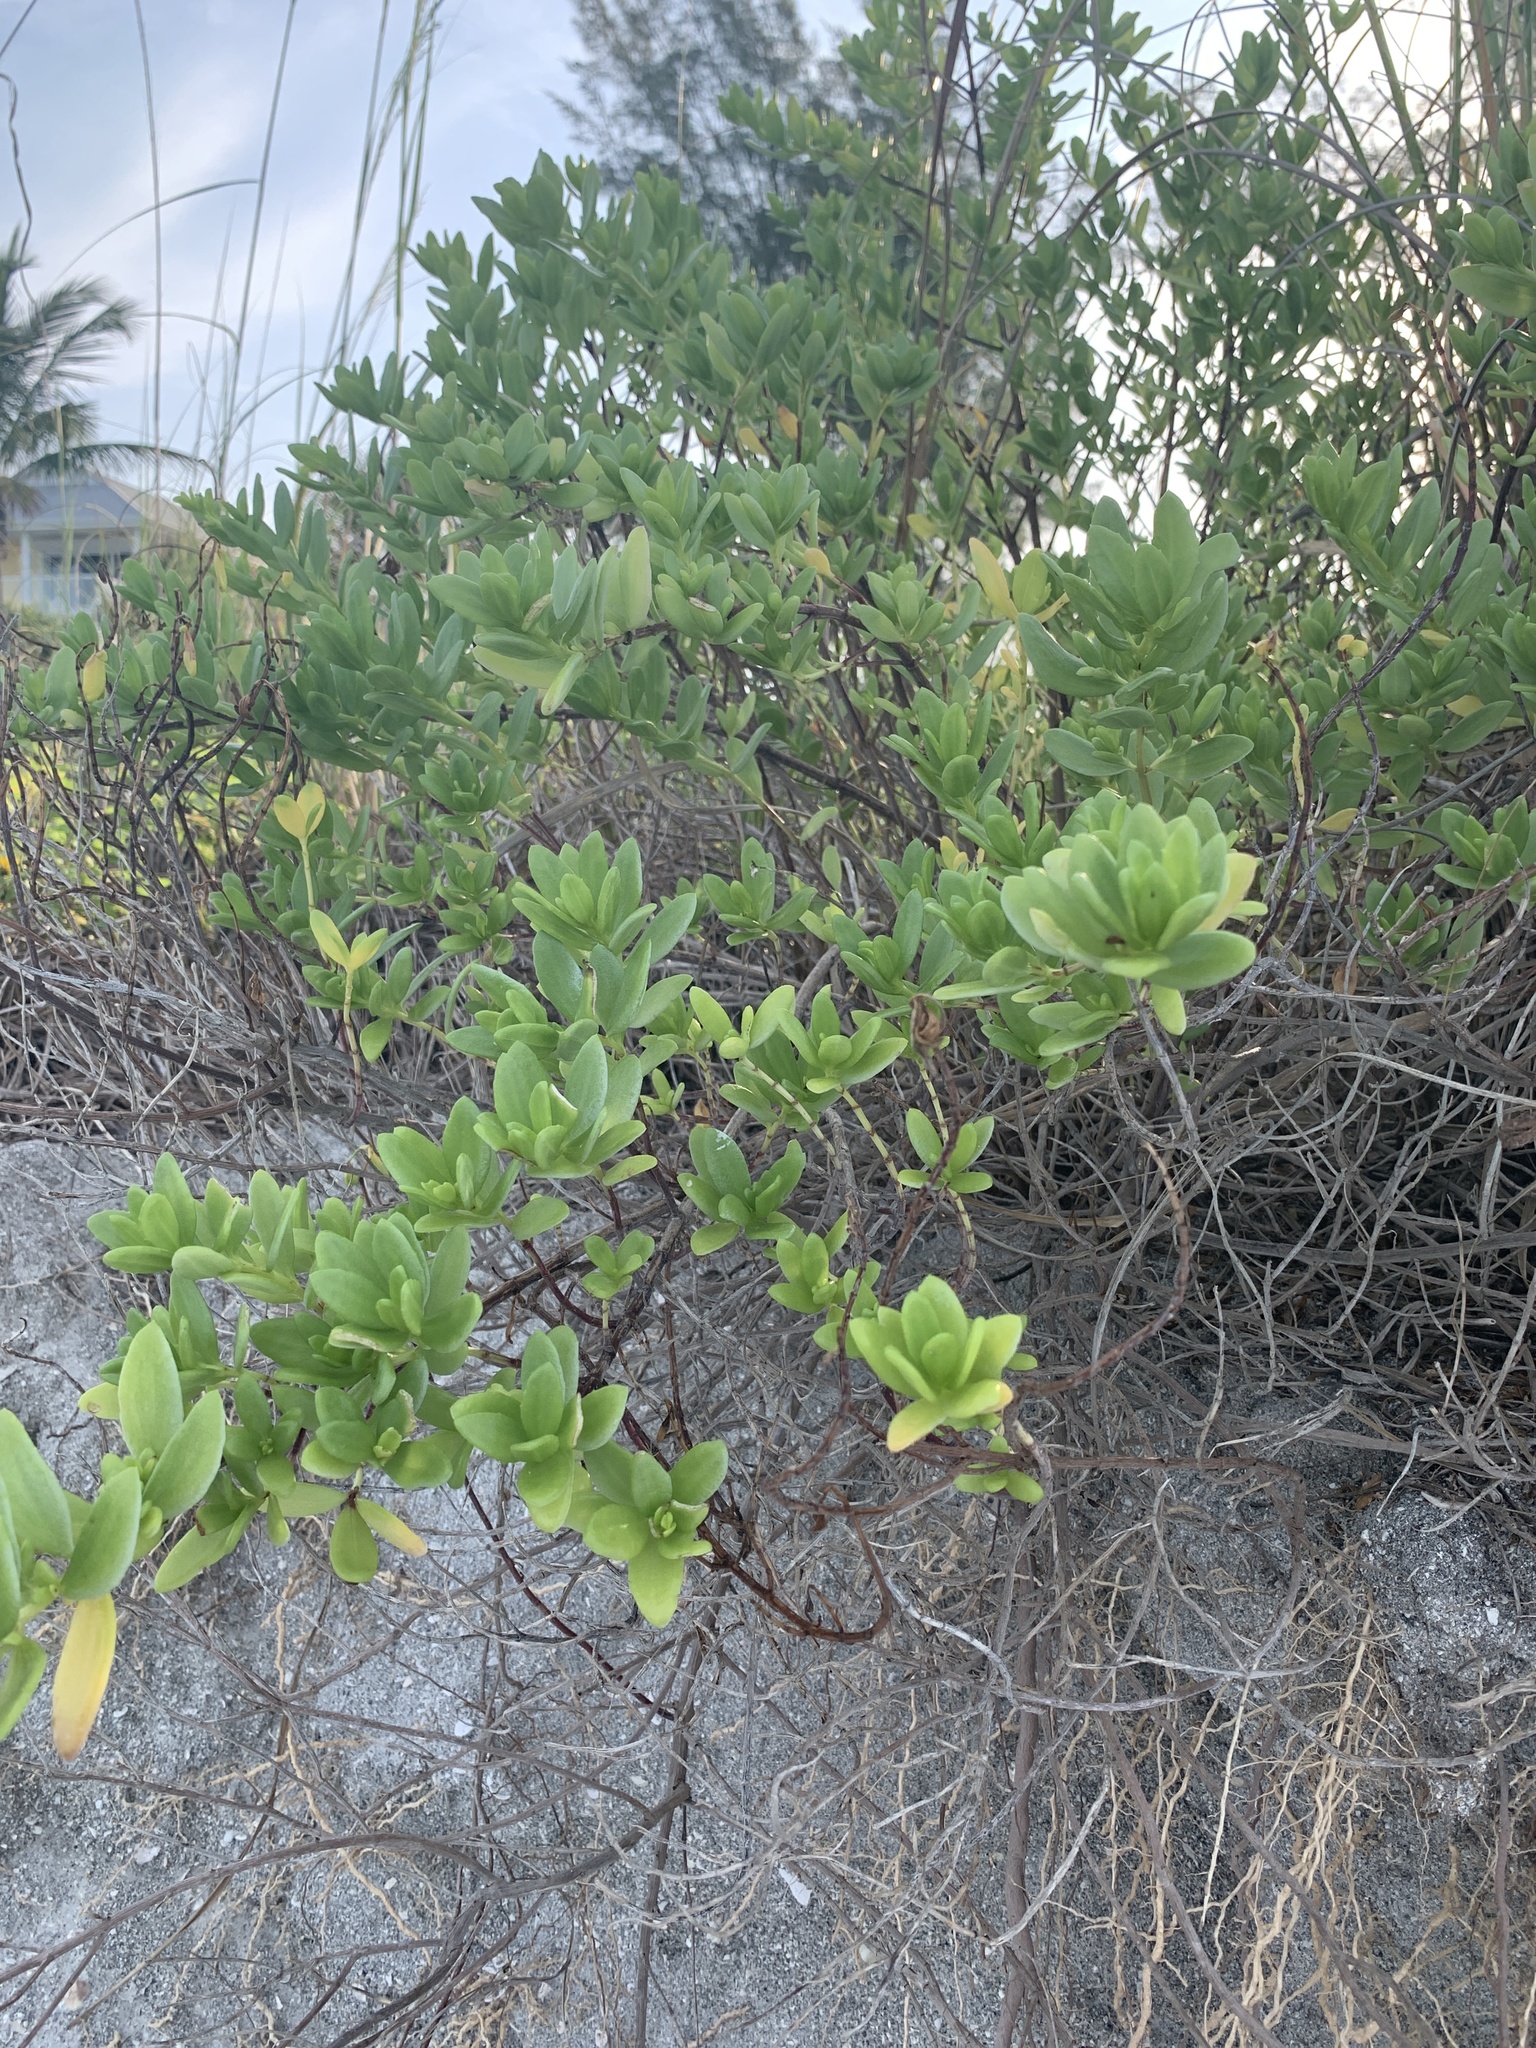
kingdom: Plantae
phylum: Tracheophyta
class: Magnoliopsida
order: Asterales
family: Asteraceae
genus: Iva
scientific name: Iva frutescens
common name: Big-leaved marsh-elder
